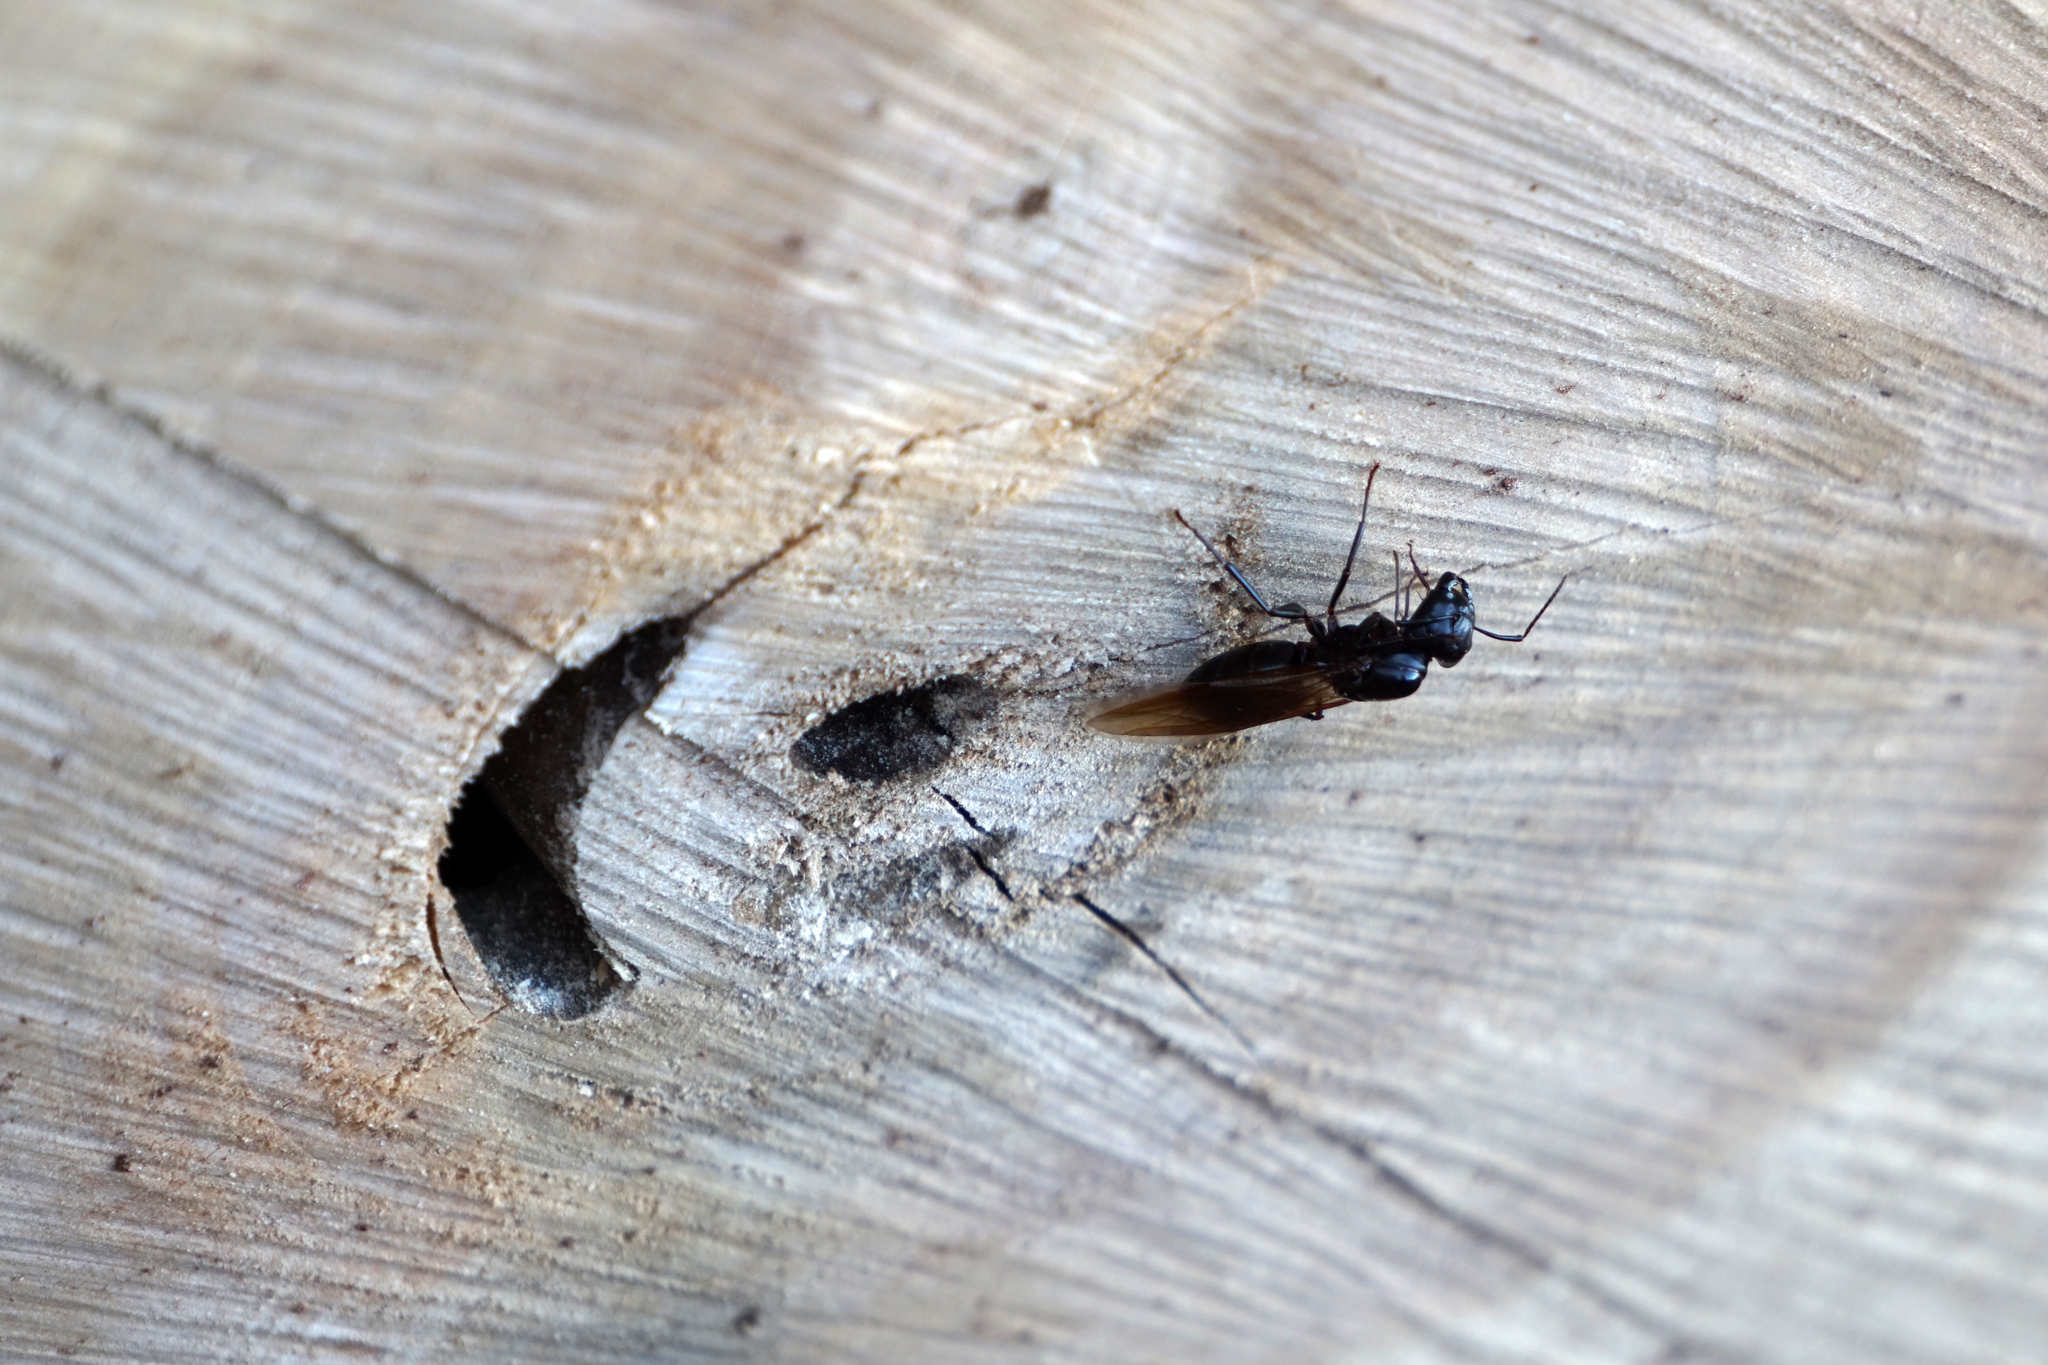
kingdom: Animalia
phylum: Arthropoda
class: Insecta
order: Hymenoptera
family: Formicidae
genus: Camponotus
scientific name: Camponotus pennsylvanicus
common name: Black carpenter ant
